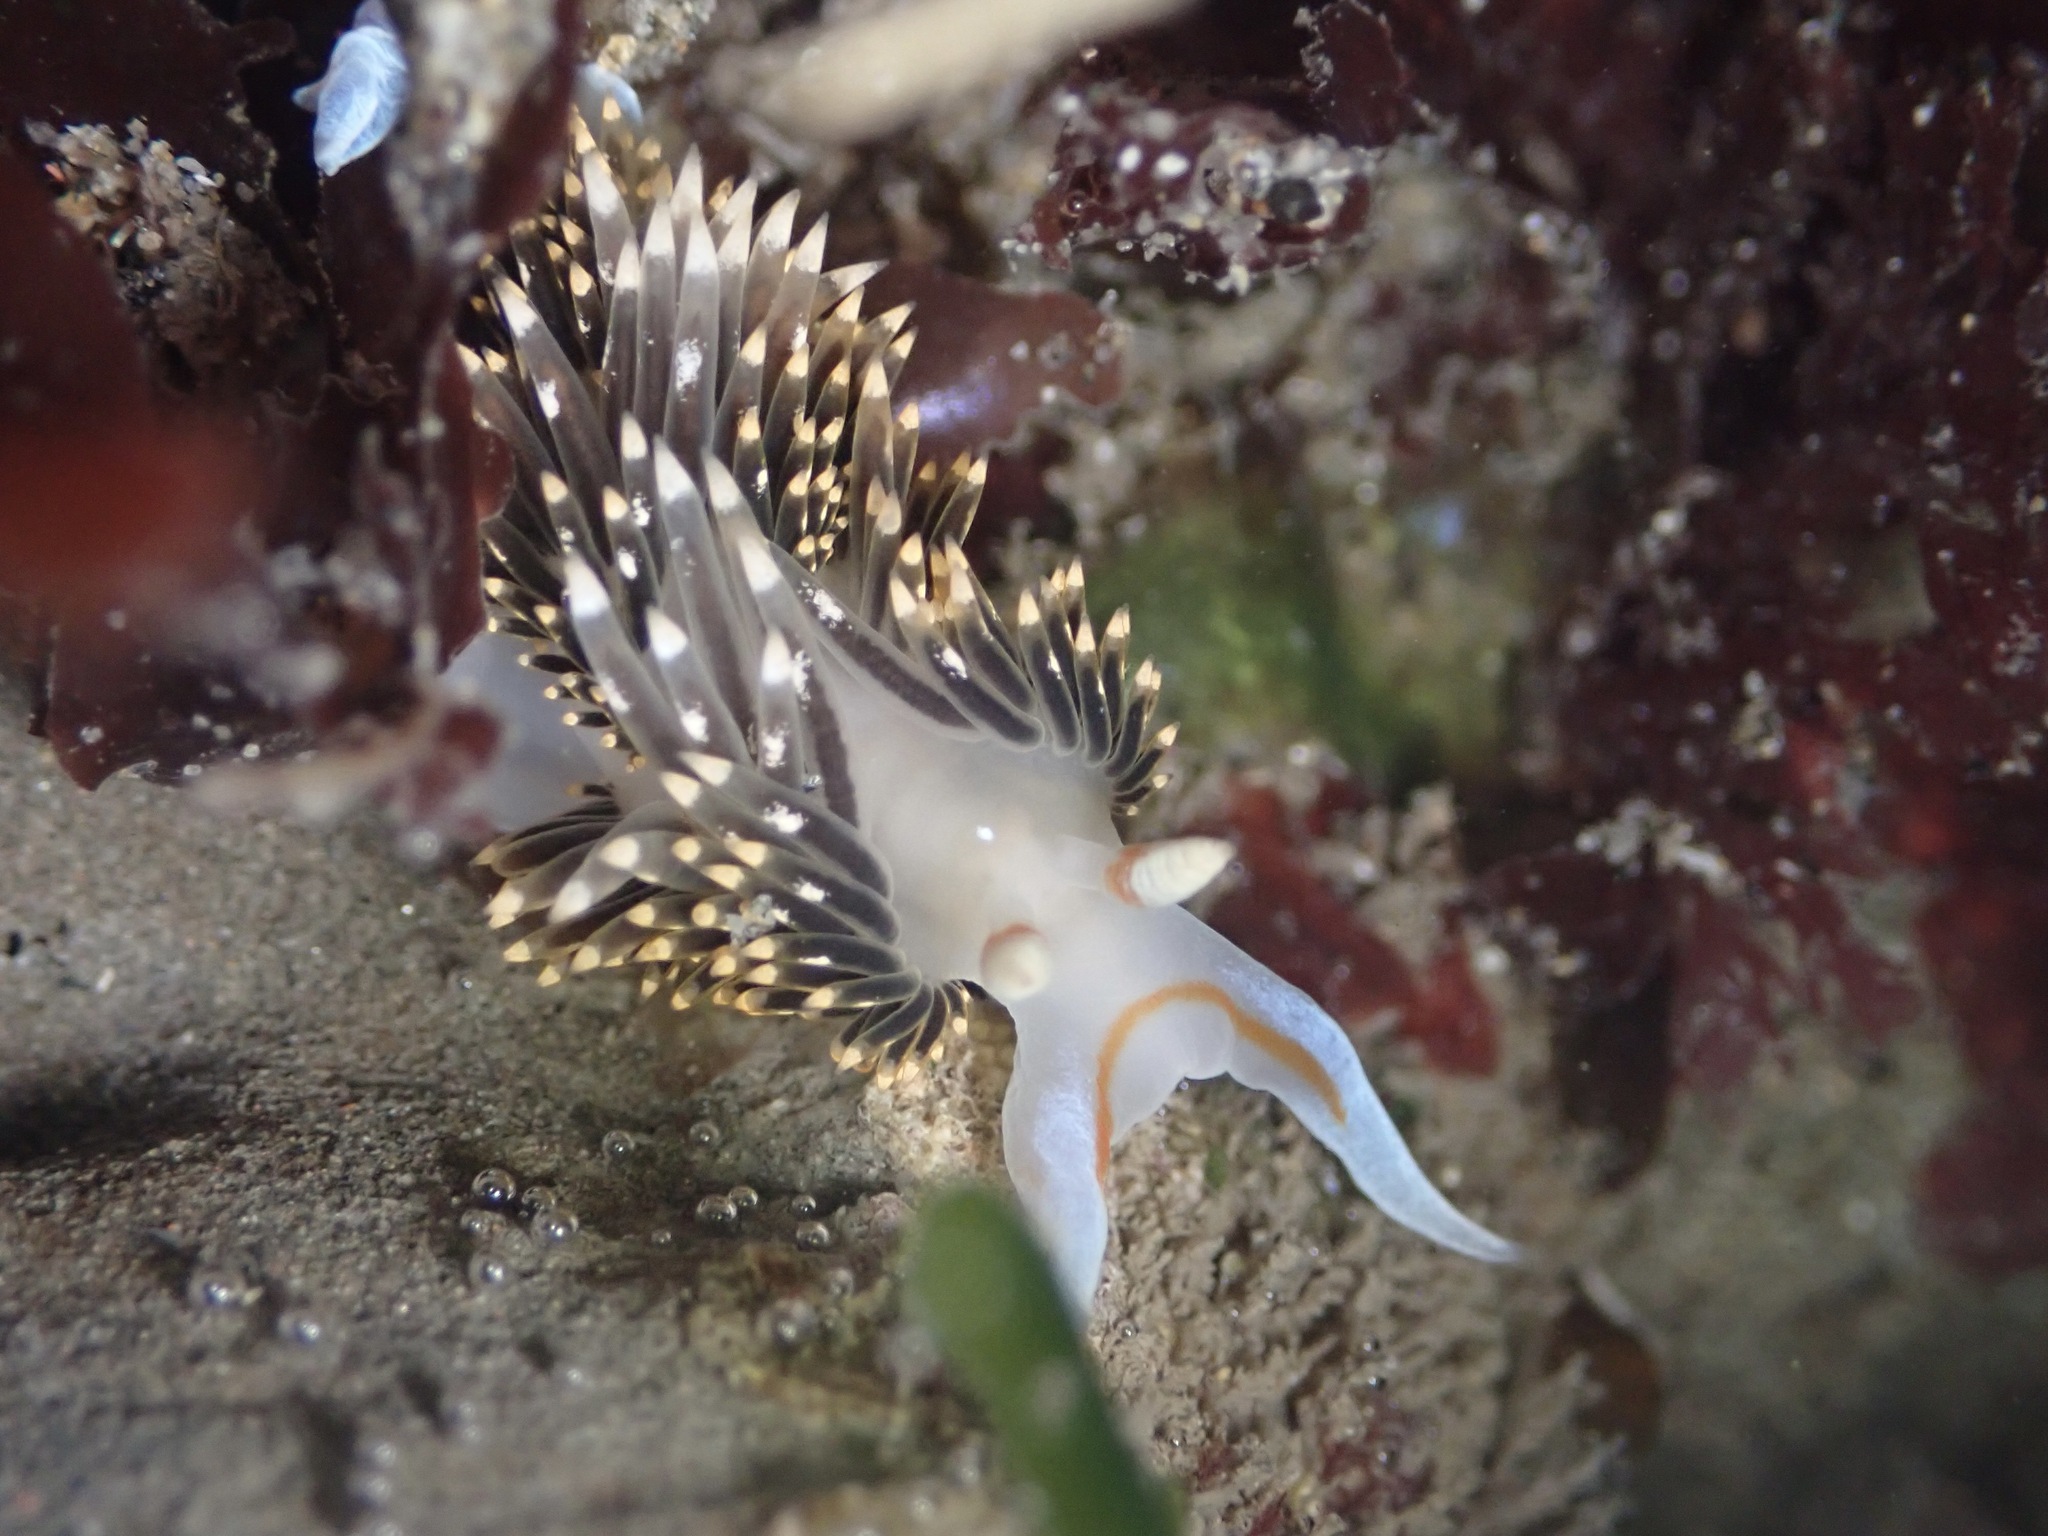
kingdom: Animalia
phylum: Mollusca
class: Gastropoda
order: Nudibranchia
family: Facelinidae
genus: Phidiana
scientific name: Phidiana hiltoni
